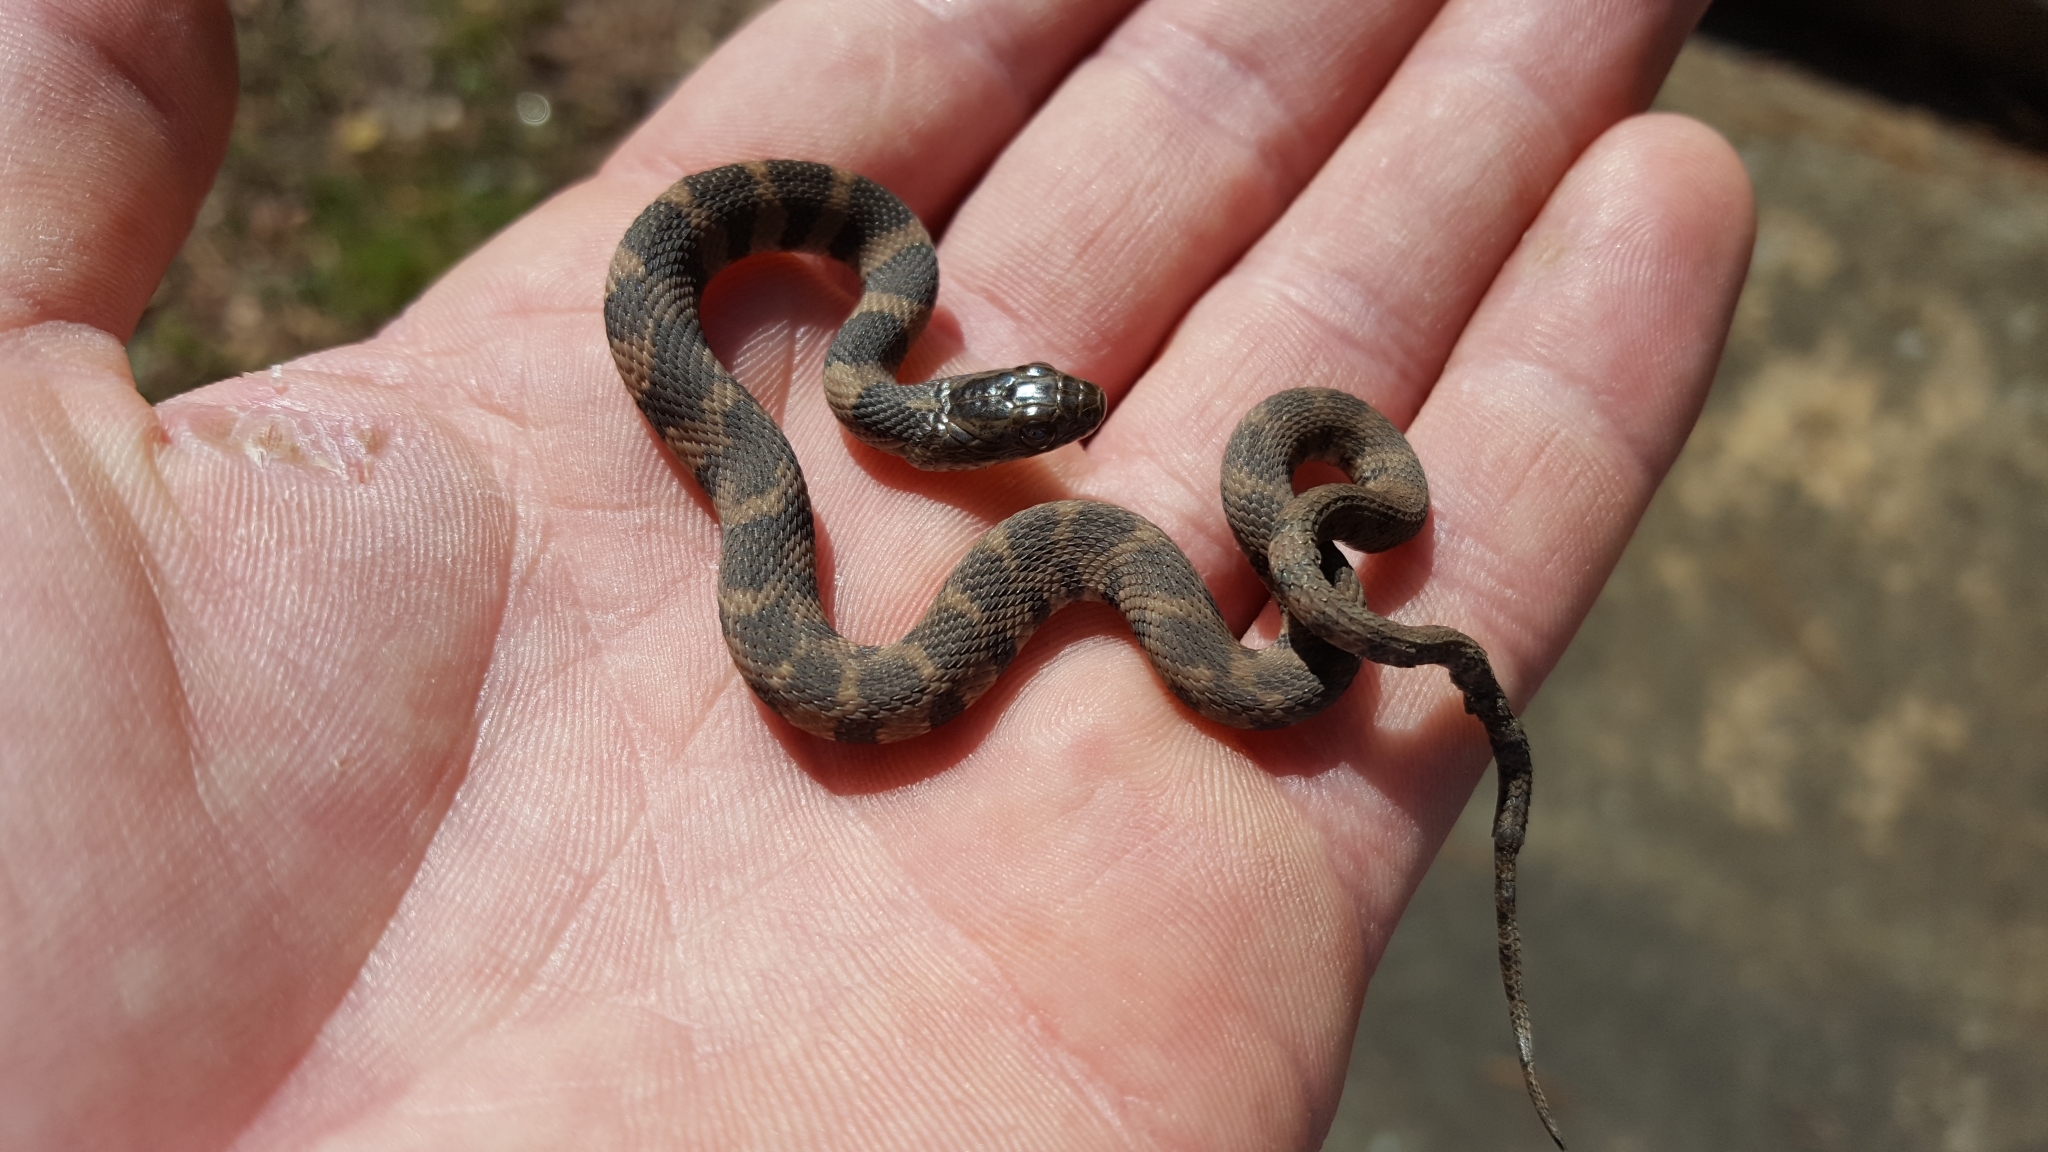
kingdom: Animalia
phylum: Chordata
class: Squamata
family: Colubridae
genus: Nerodia
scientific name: Nerodia sipedon
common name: Northern water snake
